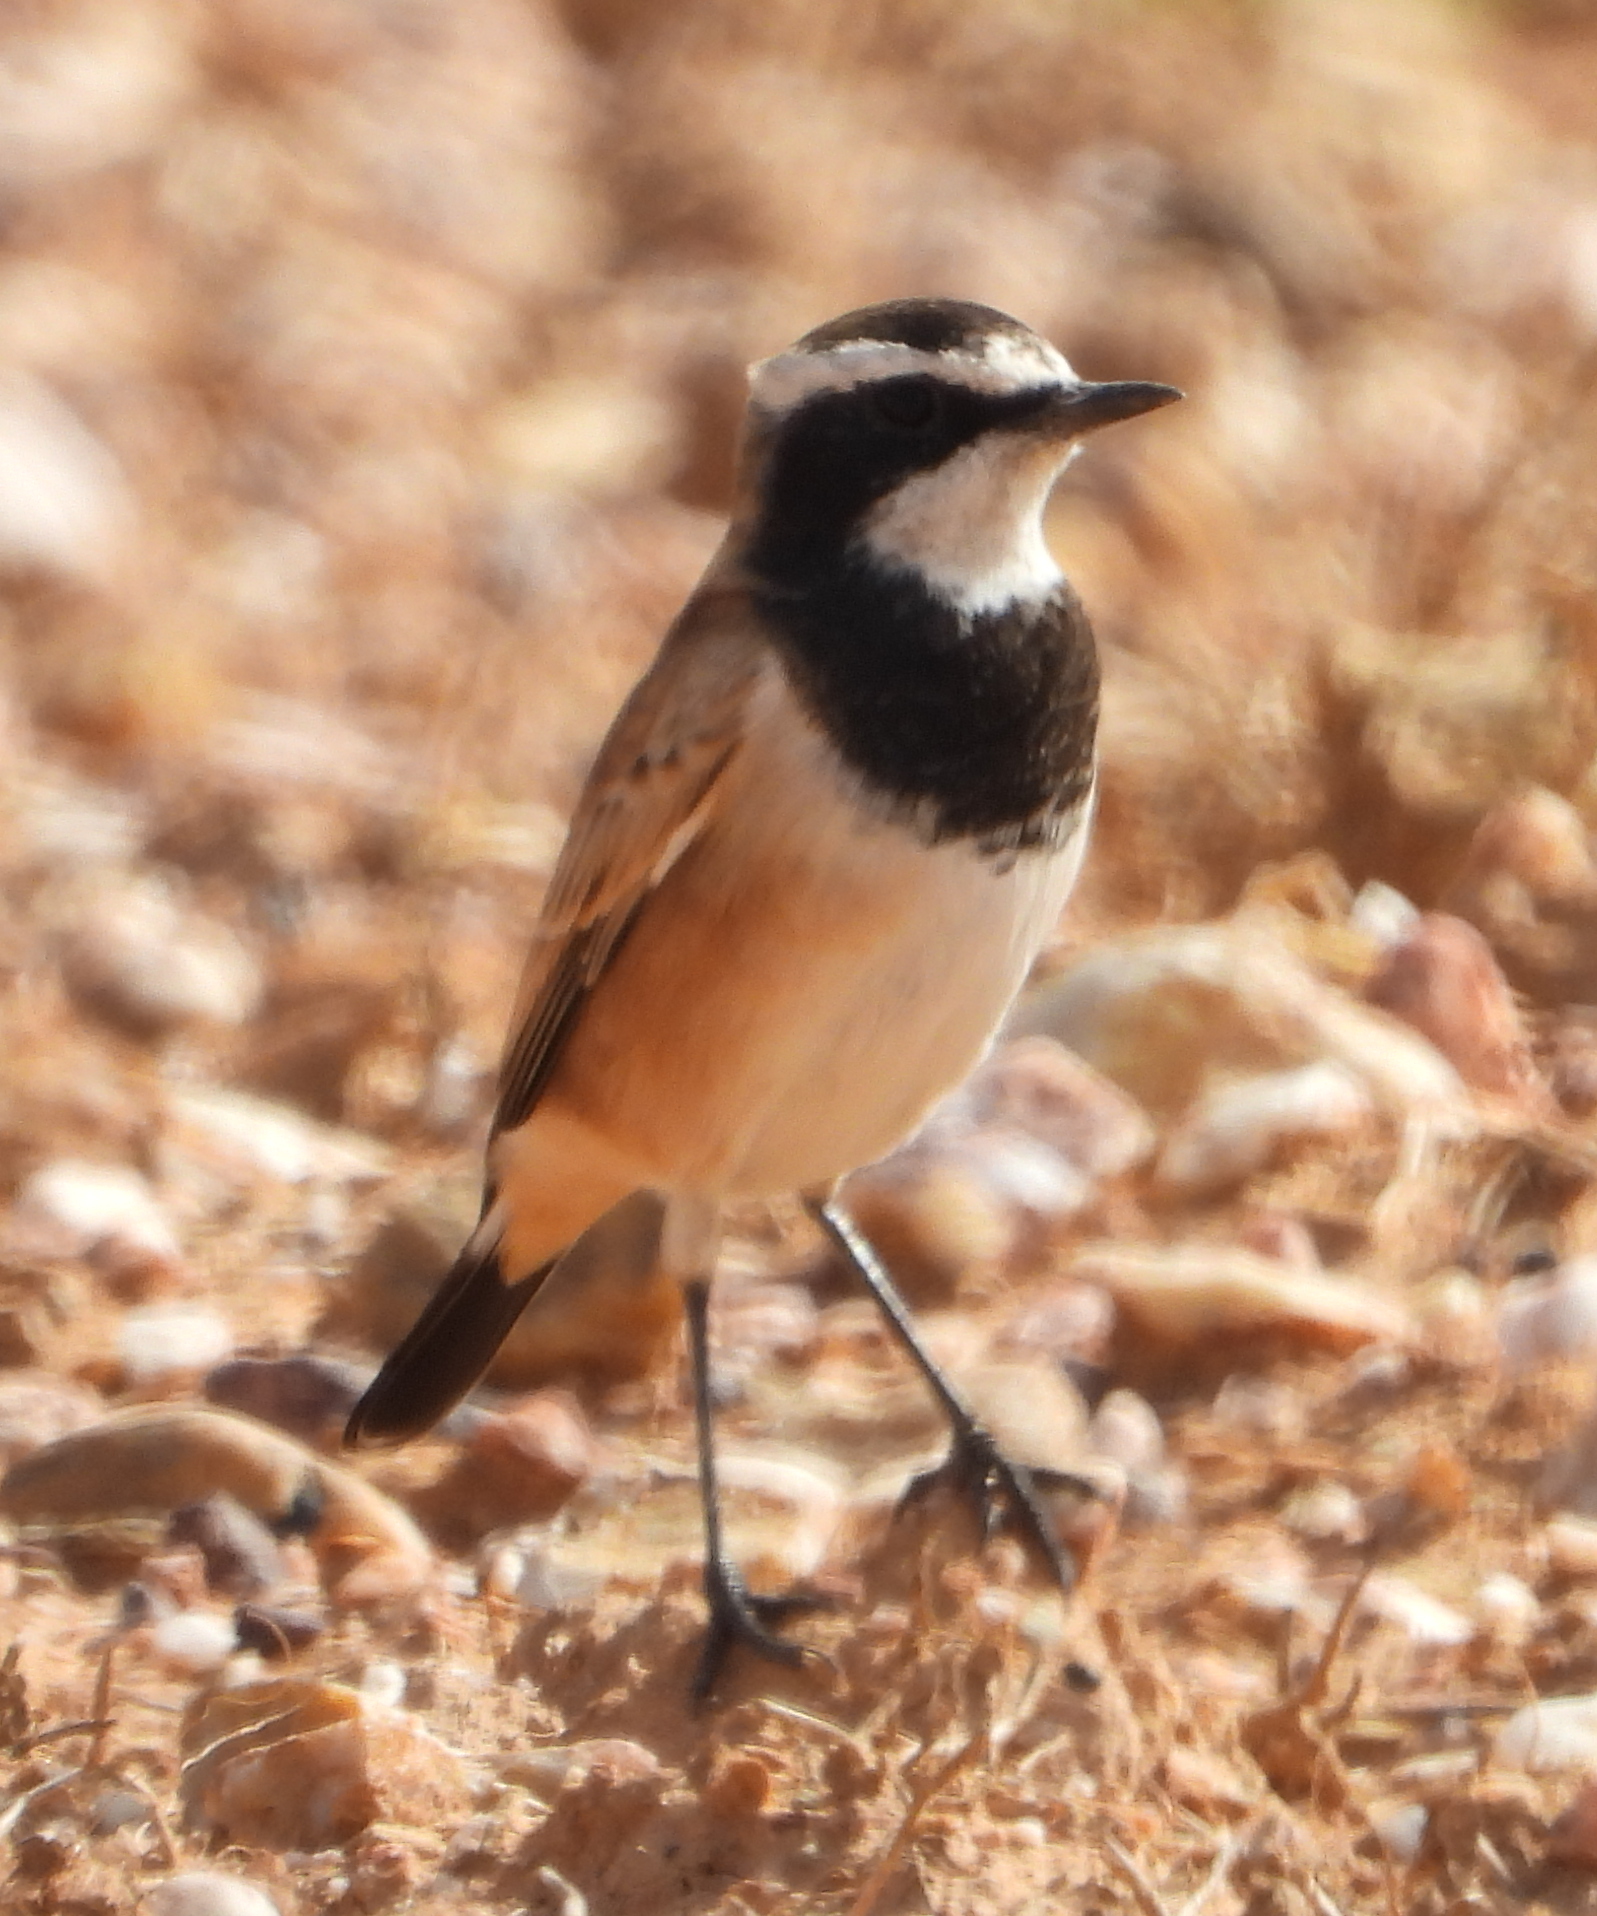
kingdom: Animalia
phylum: Chordata
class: Aves
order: Passeriformes
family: Muscicapidae
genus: Oenanthe
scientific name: Oenanthe pileata
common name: Capped wheatear
